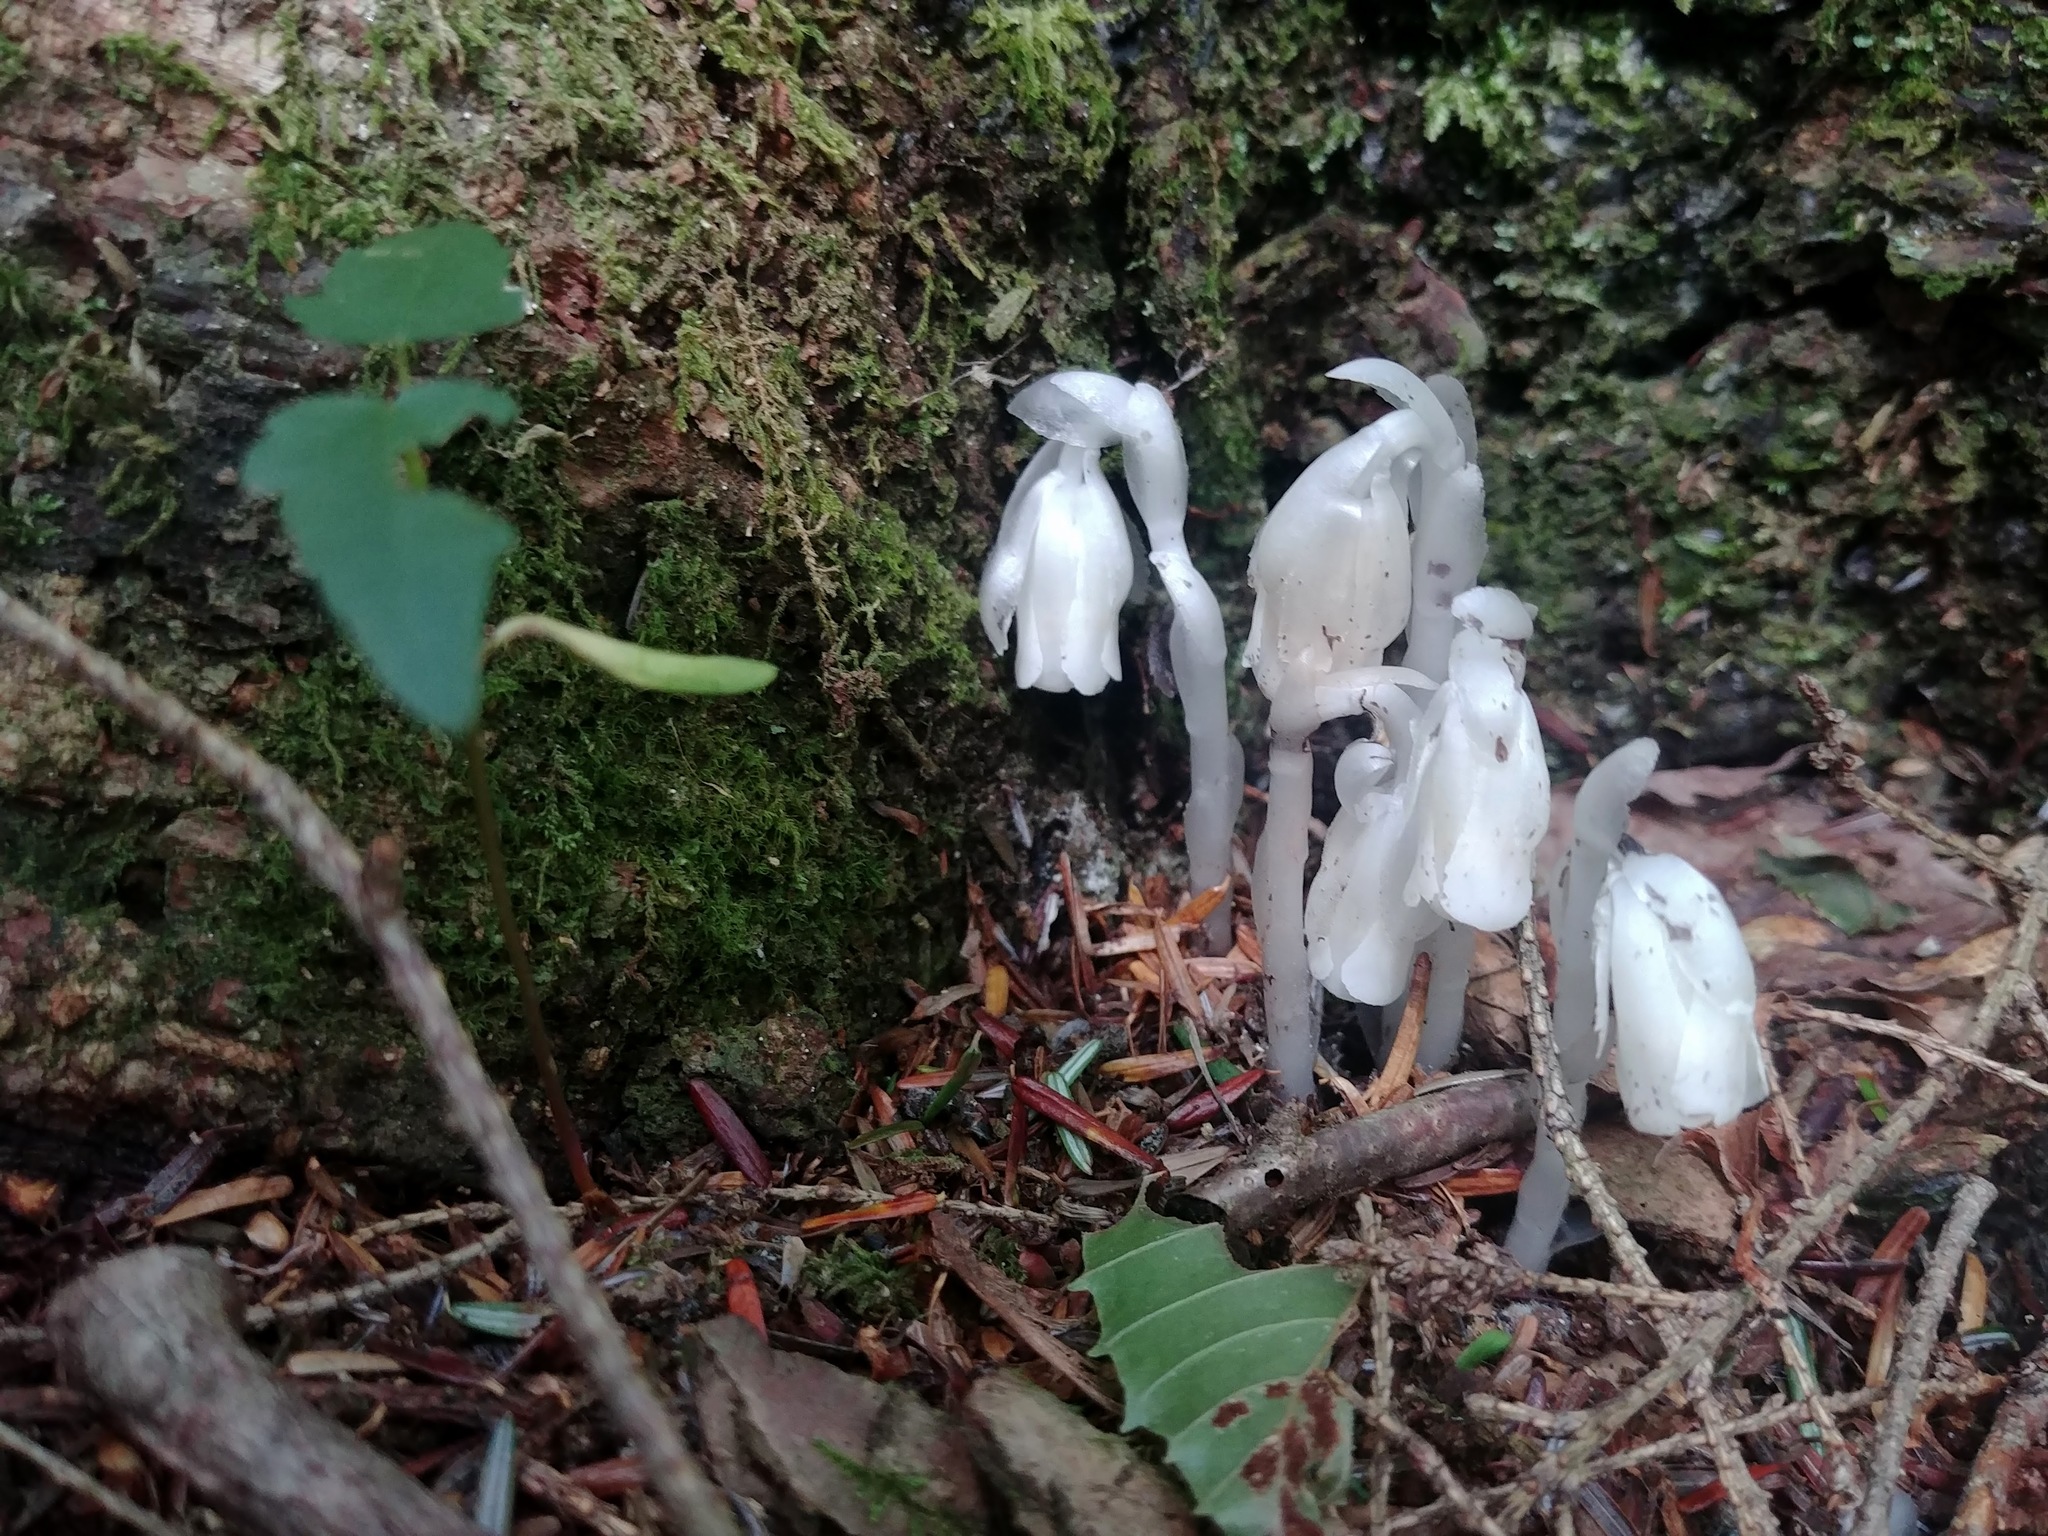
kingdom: Plantae
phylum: Tracheophyta
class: Magnoliopsida
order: Ericales
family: Ericaceae
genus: Monotropa
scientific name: Monotropa uniflora
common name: Convulsion root
